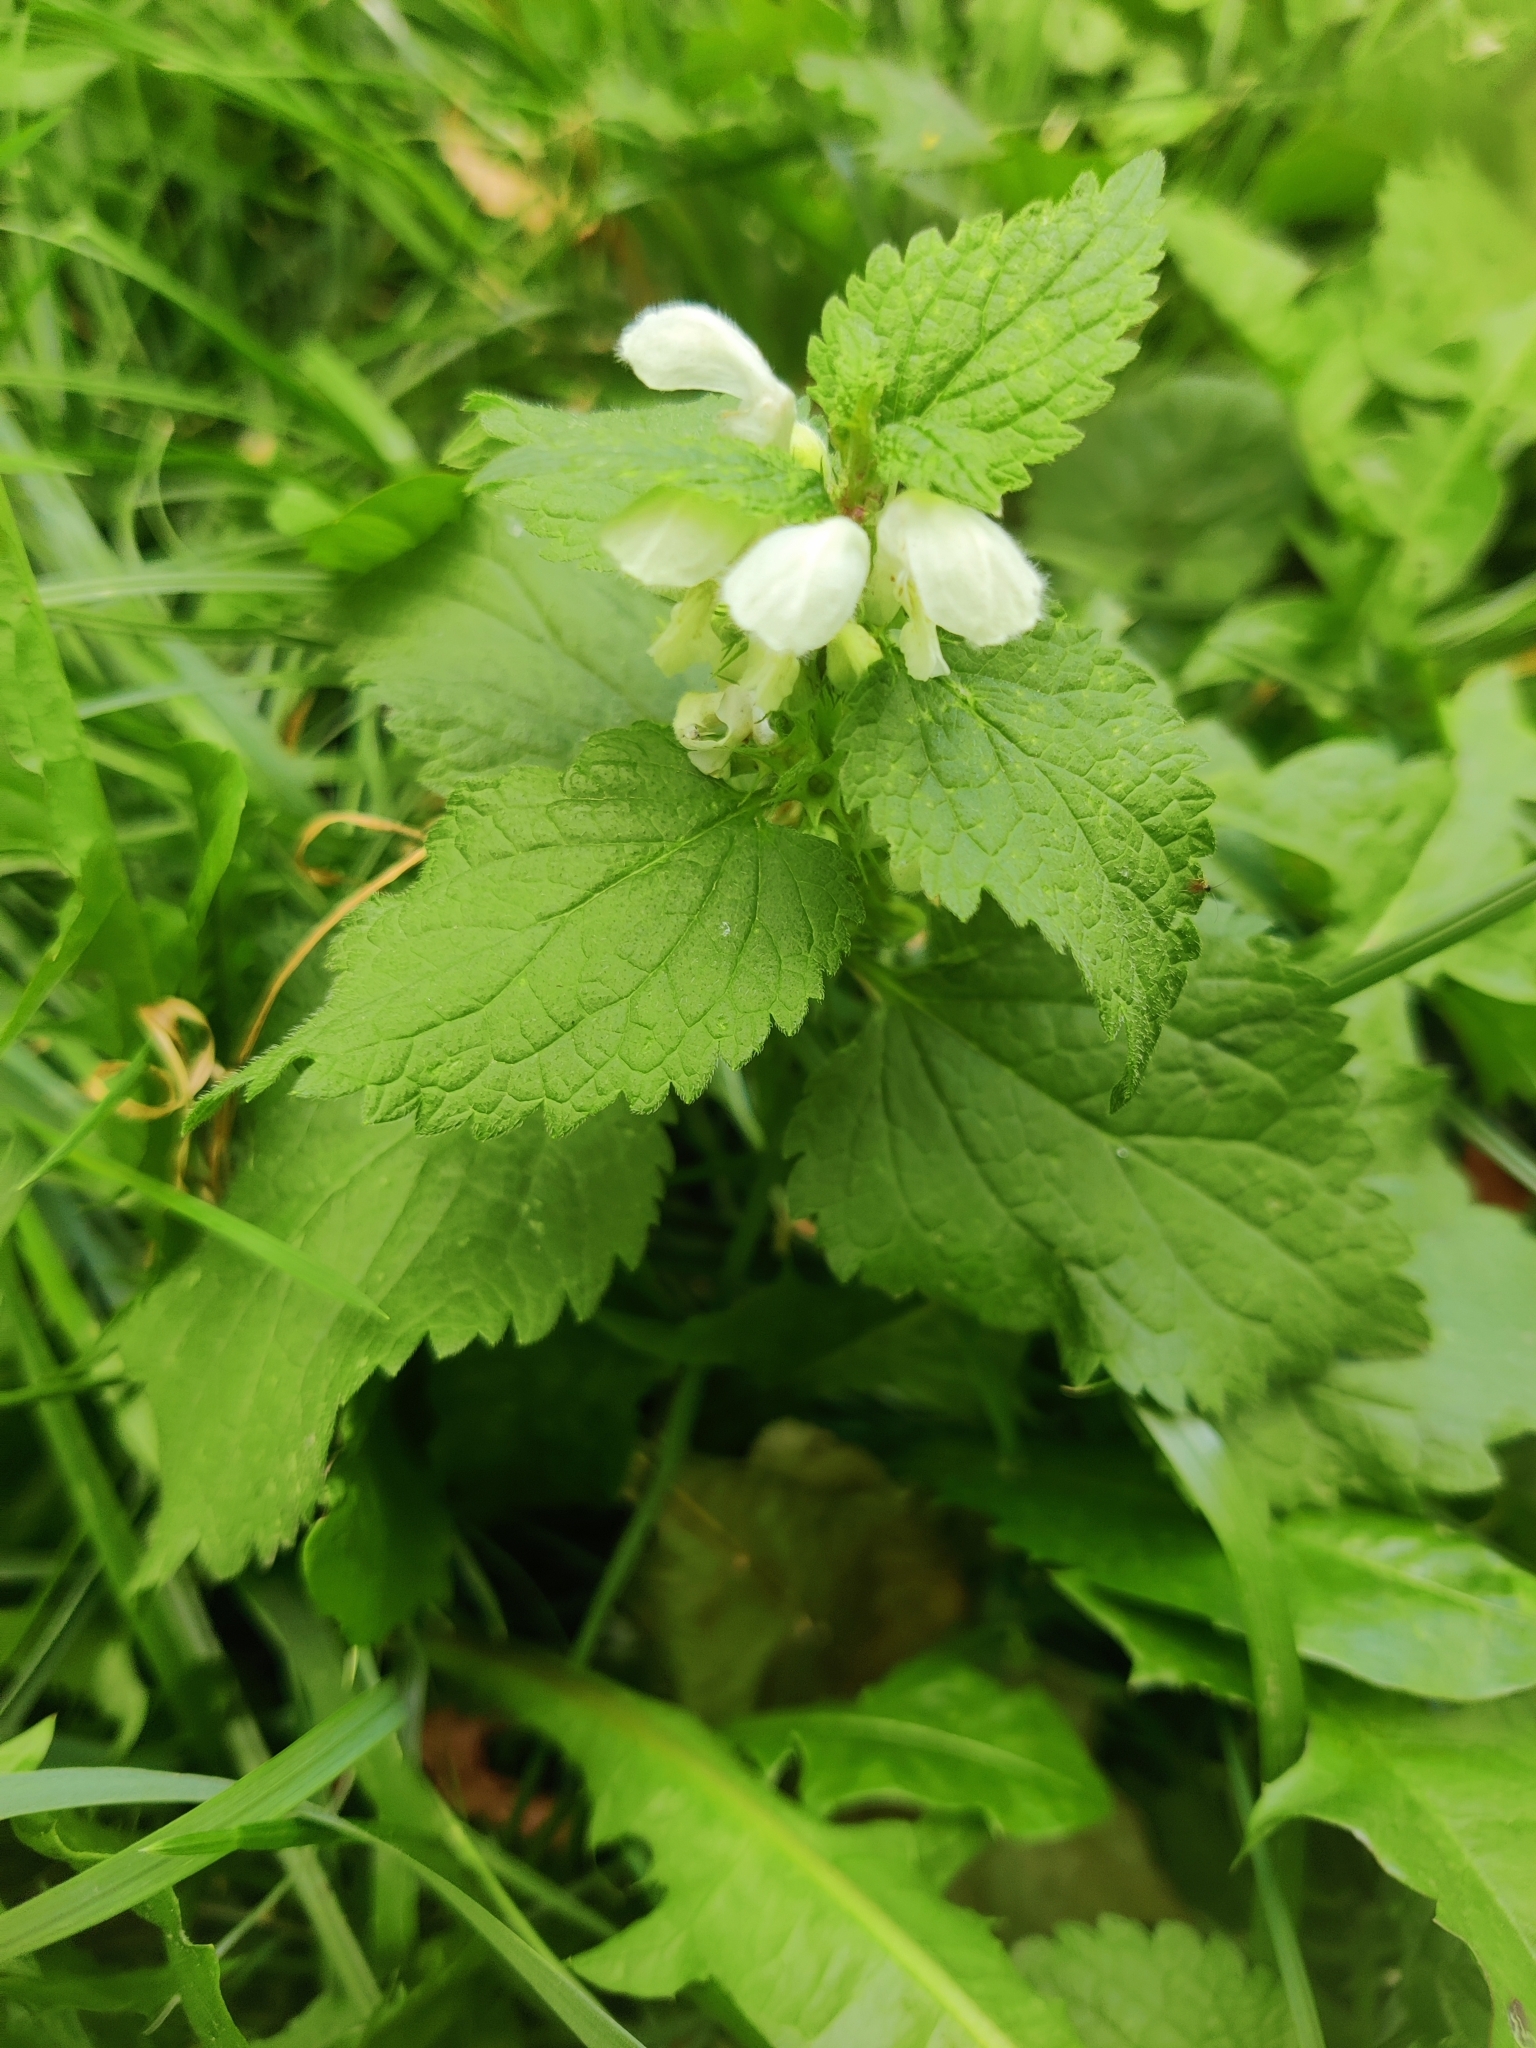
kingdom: Plantae
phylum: Tracheophyta
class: Magnoliopsida
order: Lamiales
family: Lamiaceae
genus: Lamium
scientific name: Lamium album
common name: White dead-nettle
